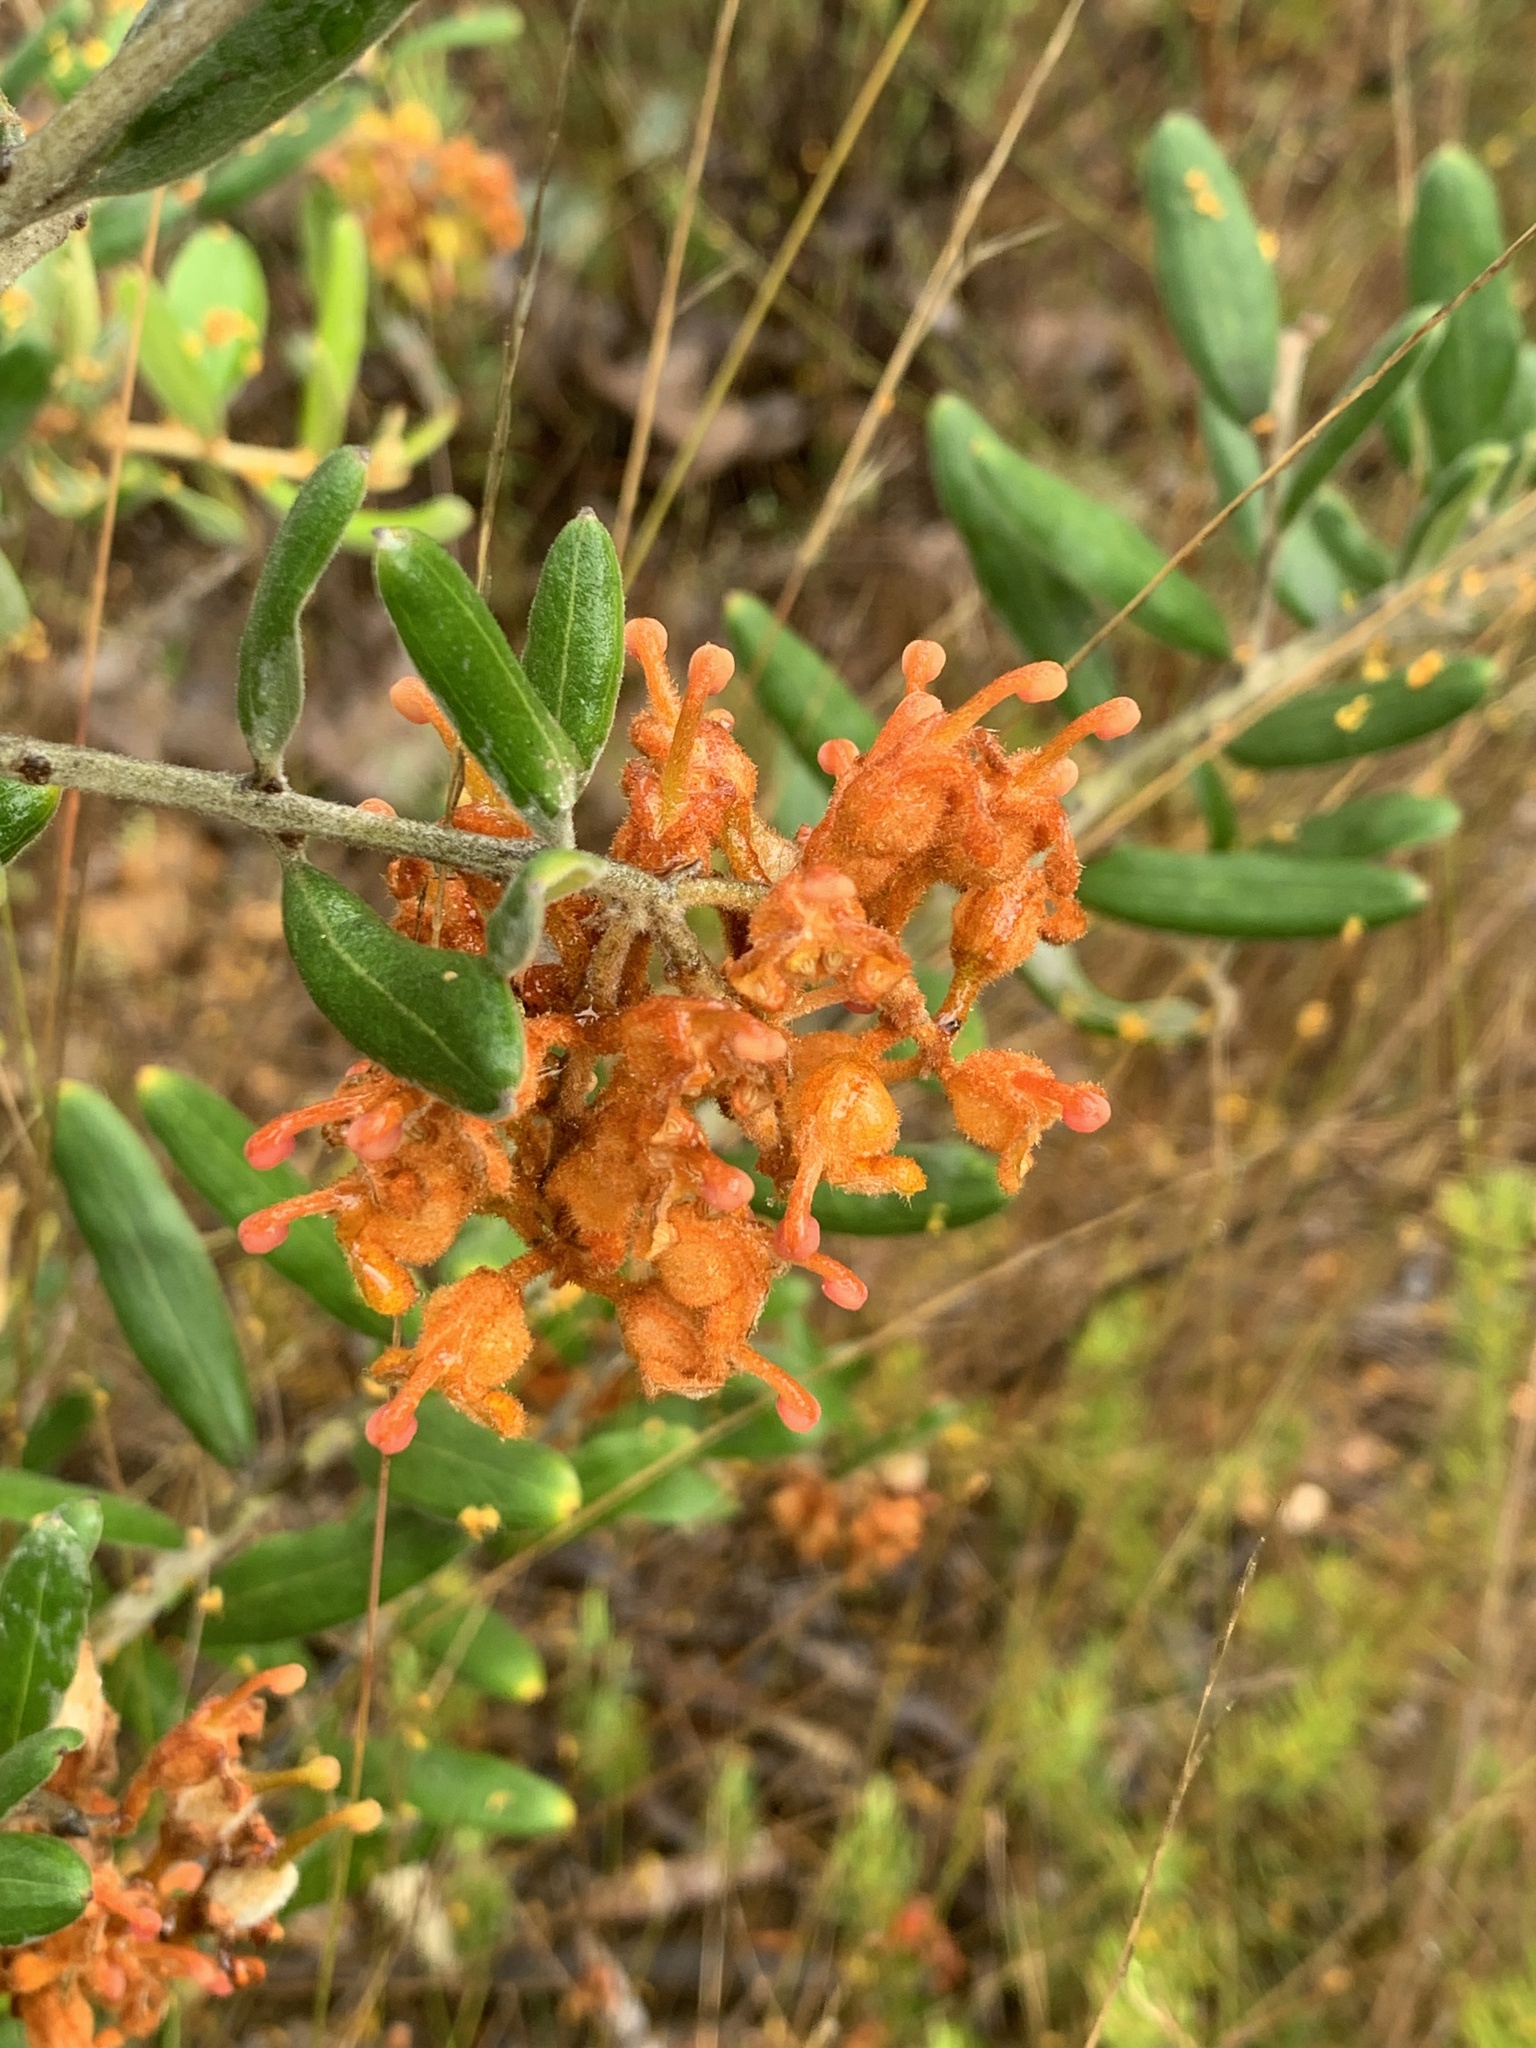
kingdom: Plantae
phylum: Tracheophyta
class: Magnoliopsida
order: Proteales
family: Proteaceae
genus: Grevillea
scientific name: Grevillea floribunda
